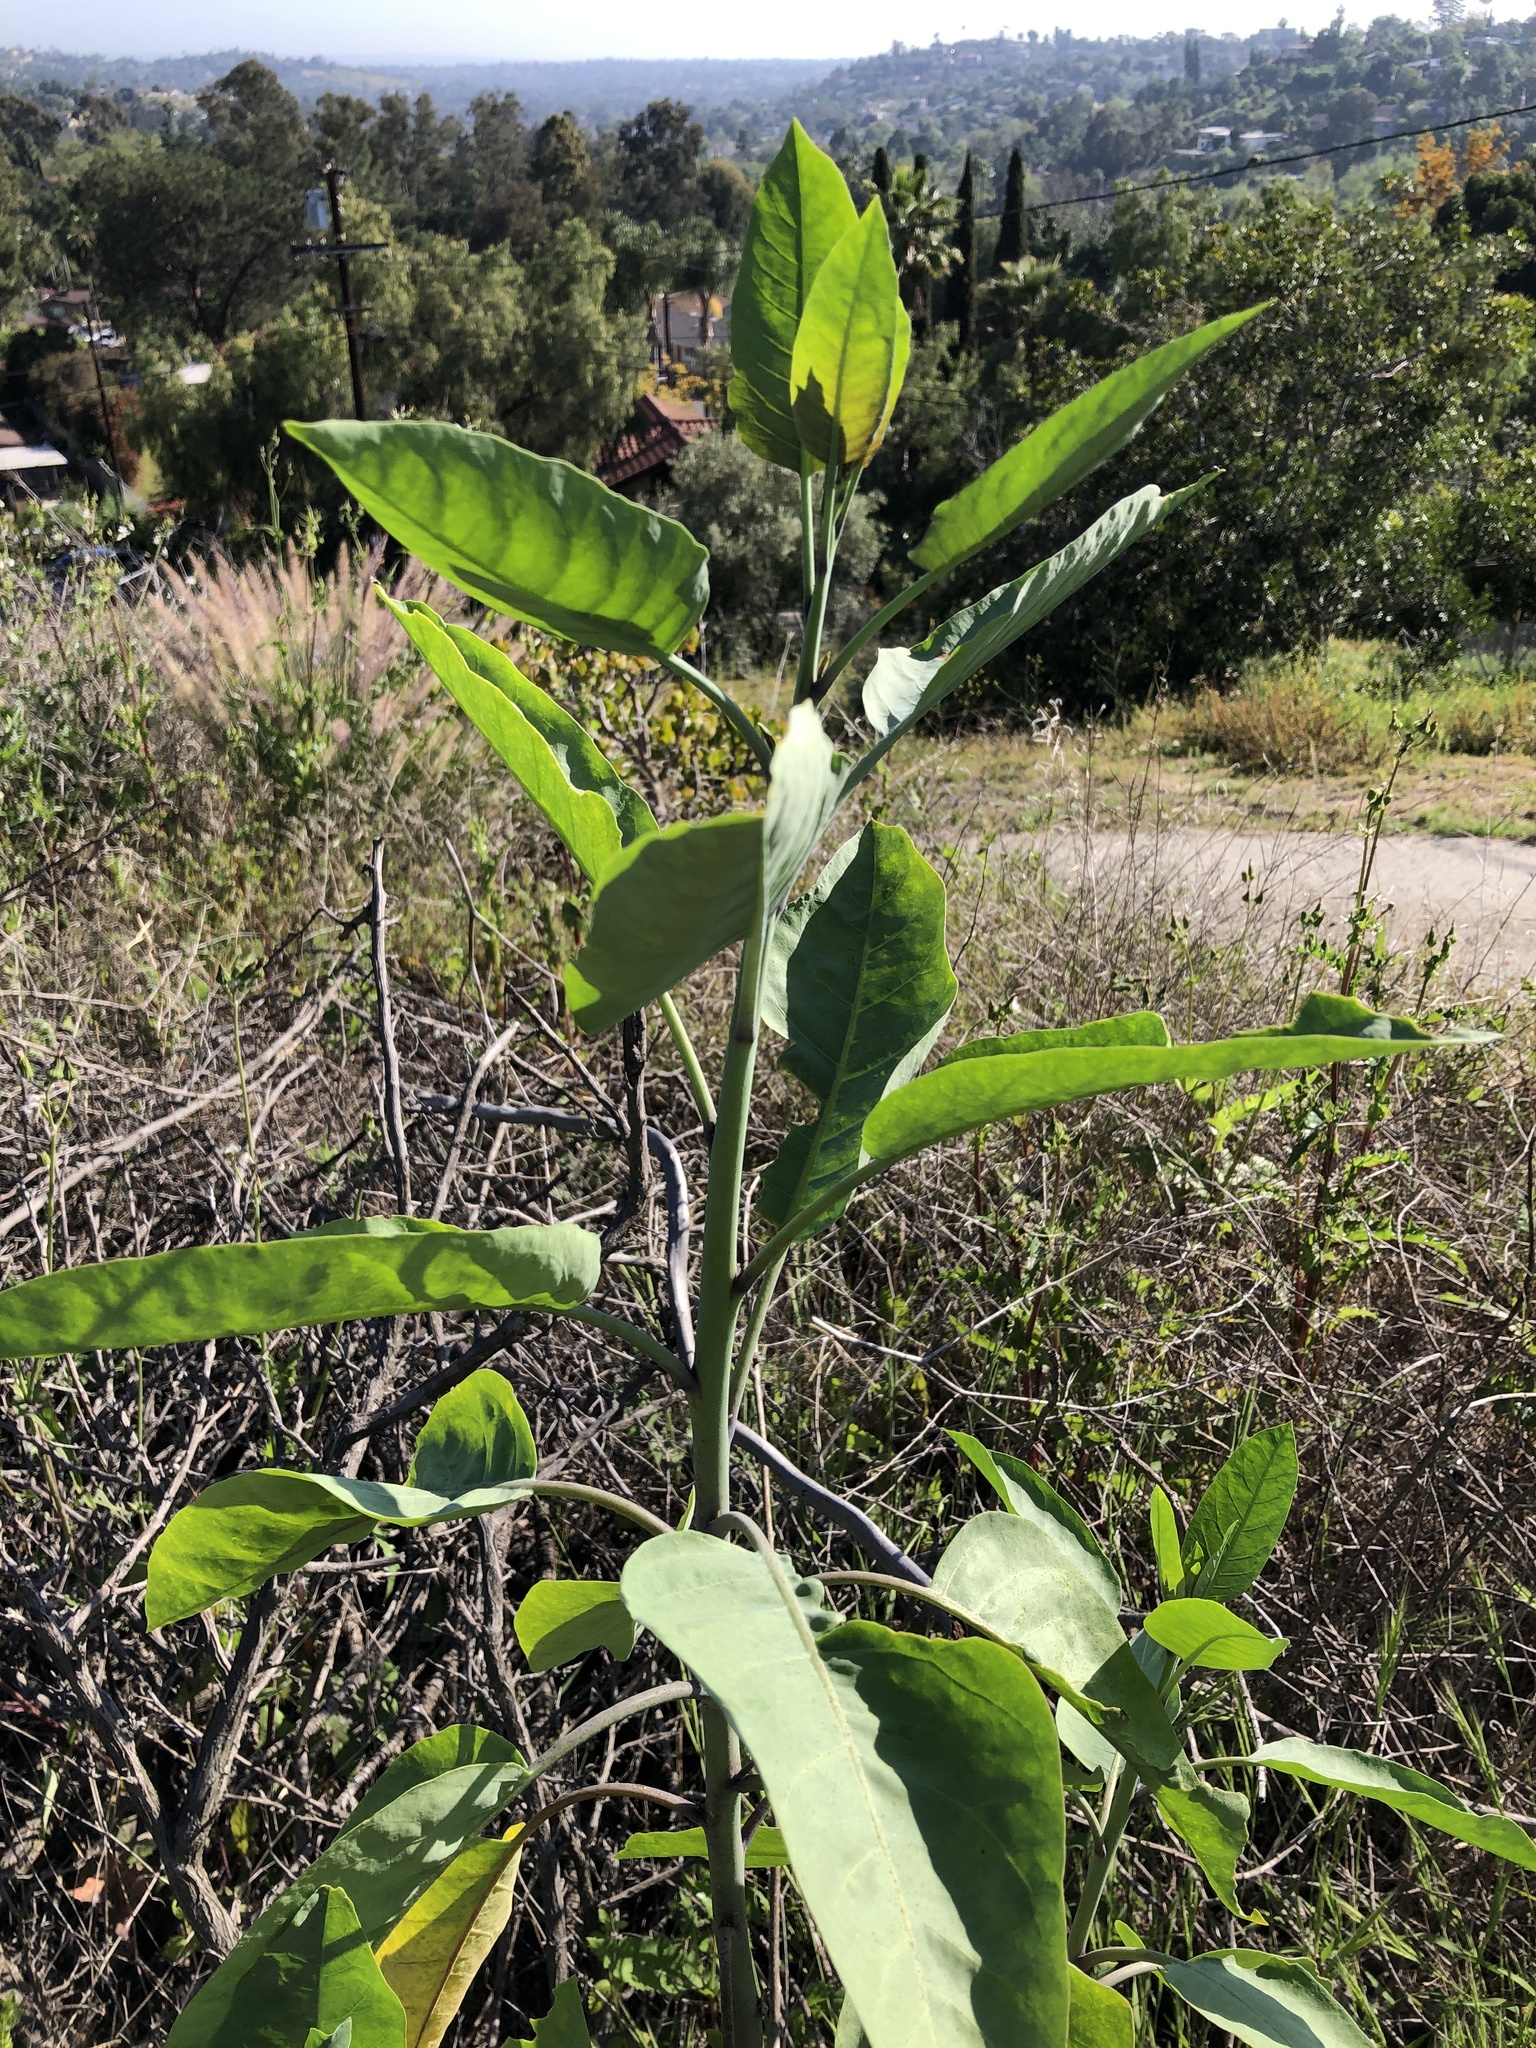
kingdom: Plantae
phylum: Tracheophyta
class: Magnoliopsida
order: Solanales
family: Solanaceae
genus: Nicotiana
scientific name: Nicotiana glauca
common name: Tree tobacco
